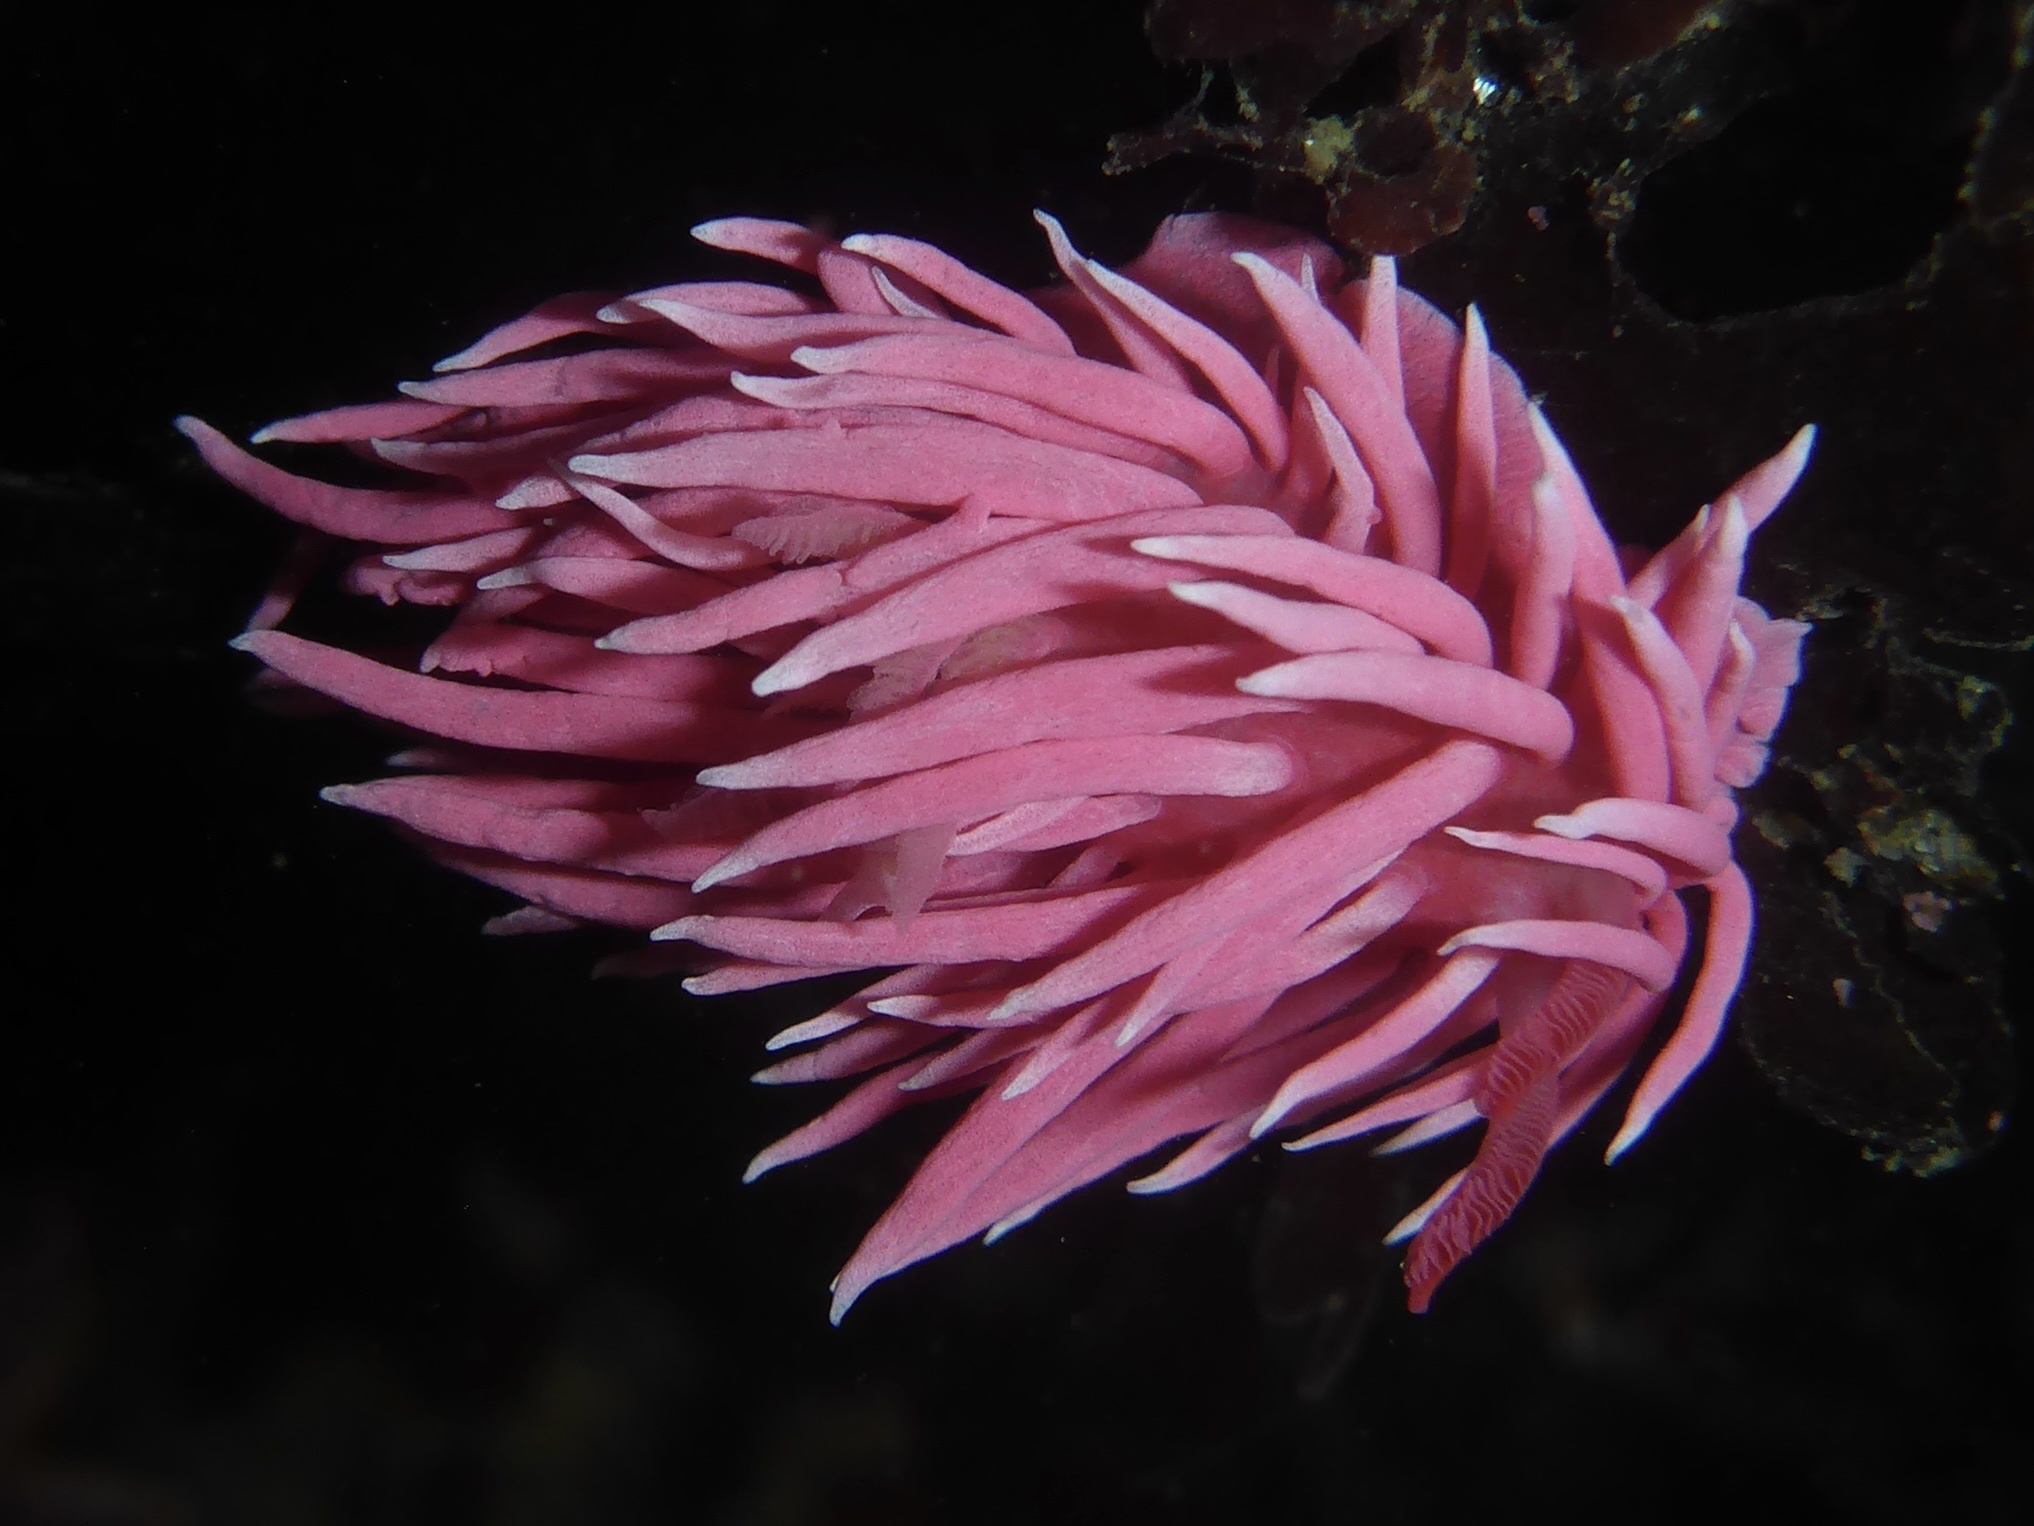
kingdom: Animalia
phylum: Mollusca
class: Gastropoda
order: Nudibranchia
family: Goniodorididae
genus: Okenia
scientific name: Okenia
